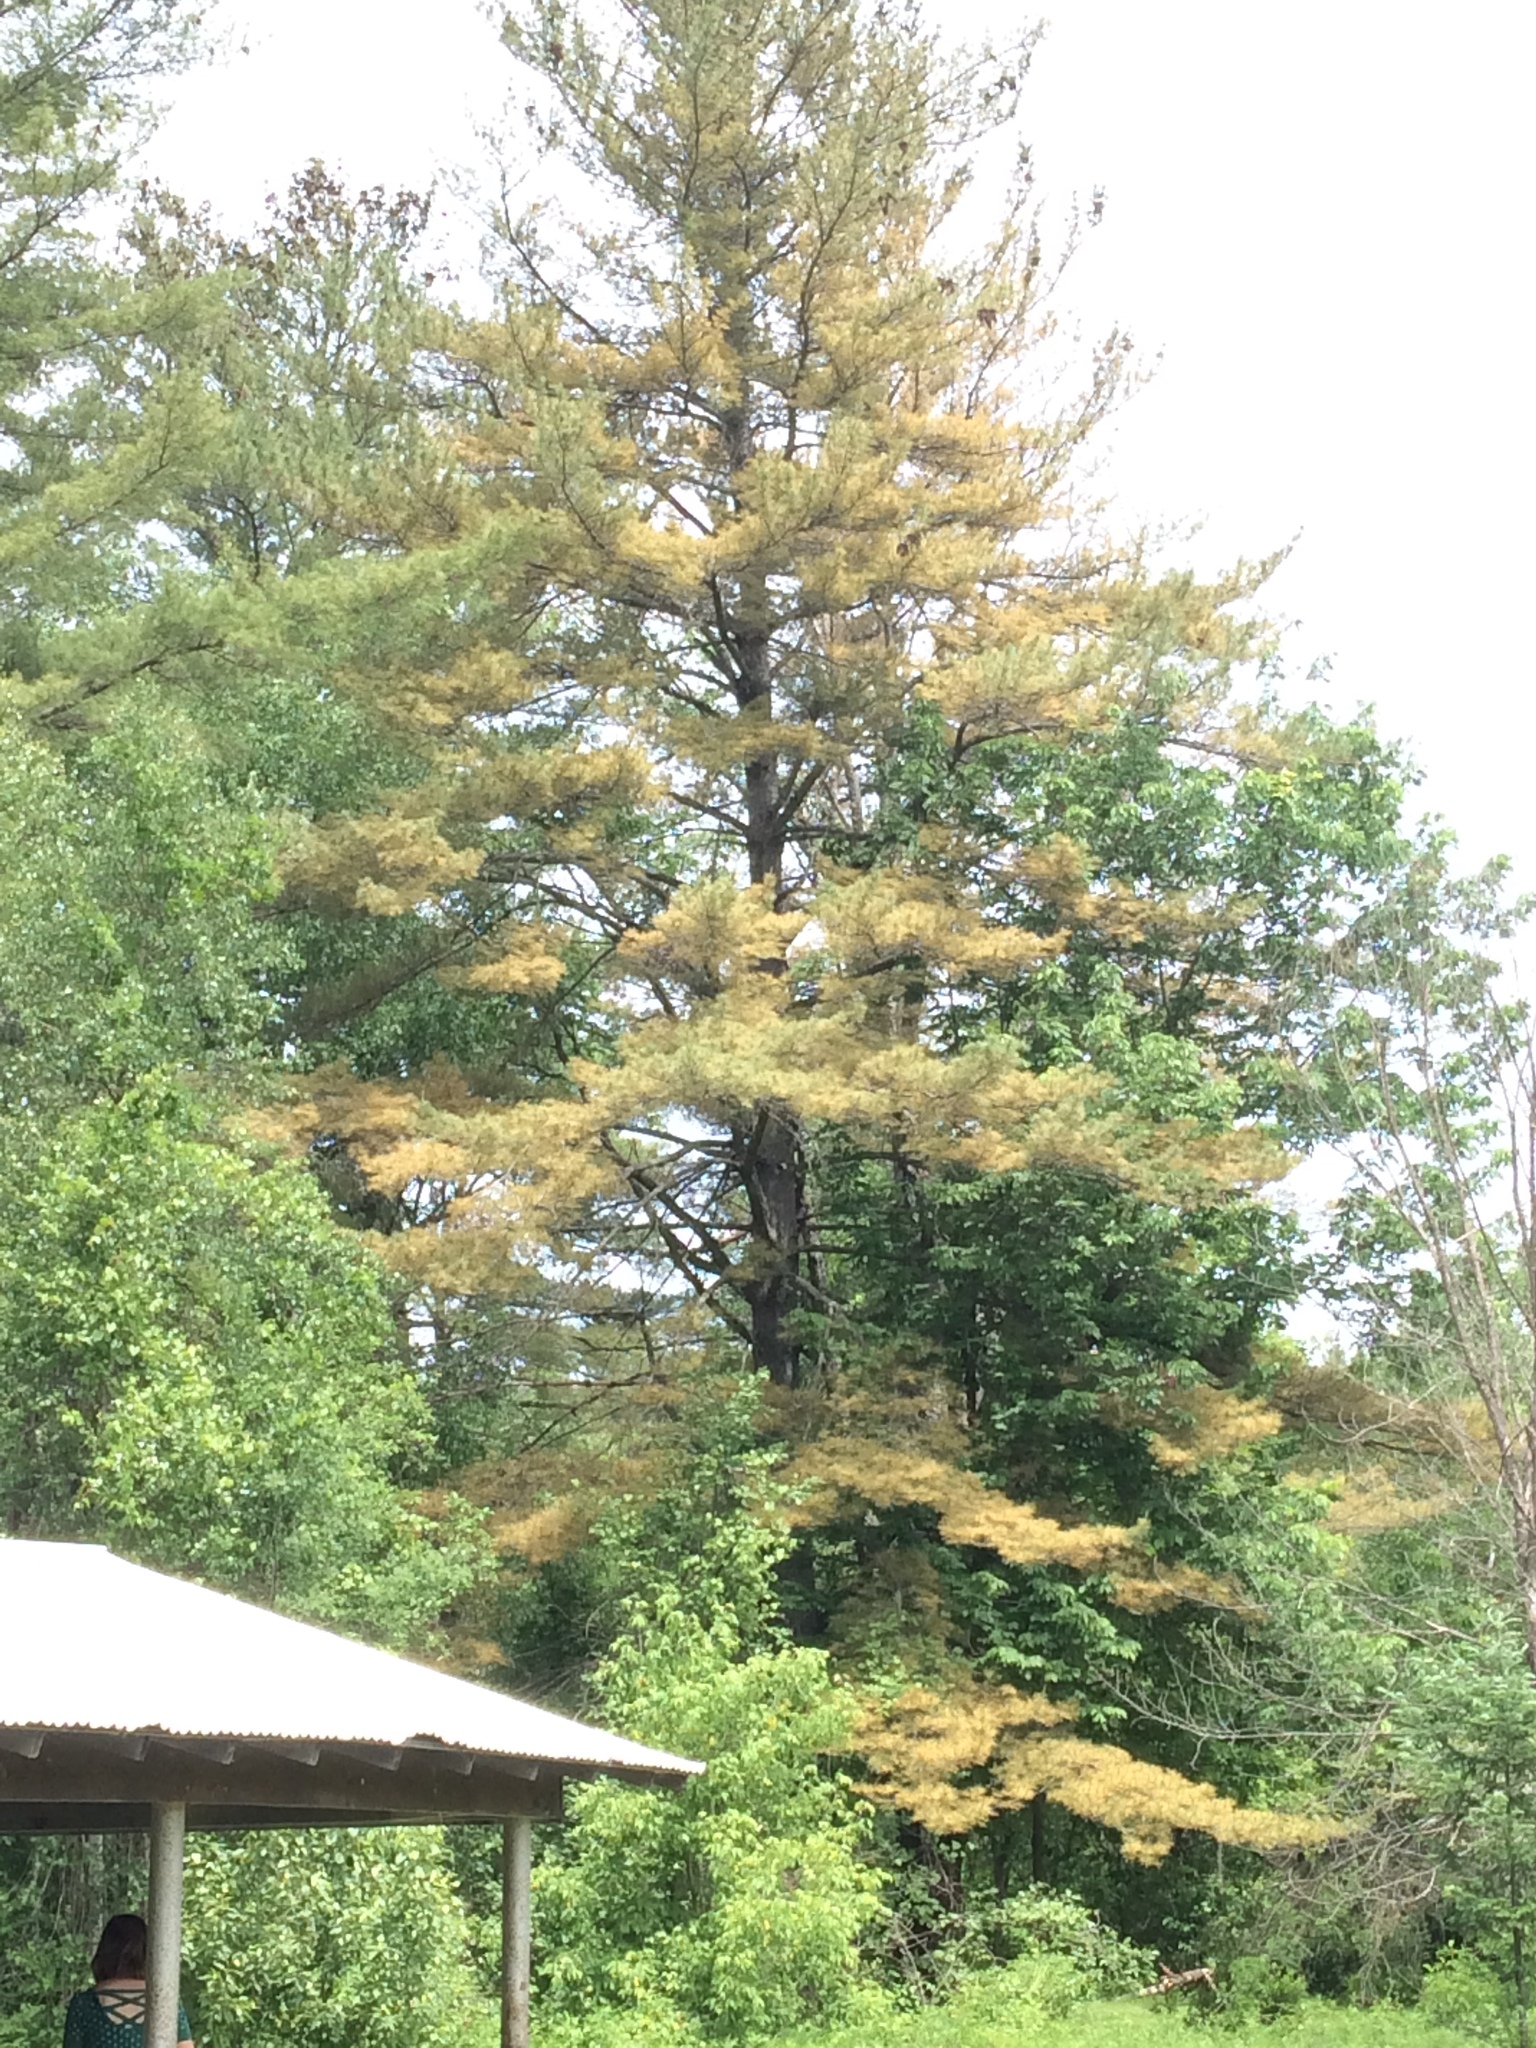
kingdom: Plantae
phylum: Tracheophyta
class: Pinopsida
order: Pinales
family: Pinaceae
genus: Pinus
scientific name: Pinus strobus
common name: Weymouth pine
